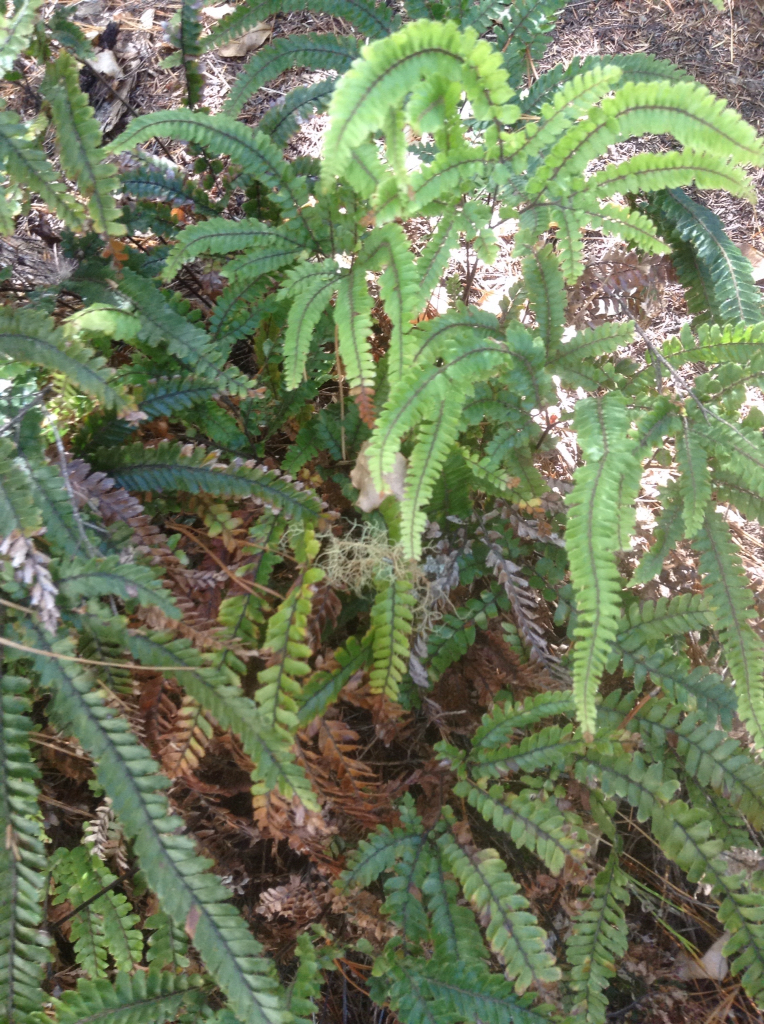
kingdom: Plantae
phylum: Tracheophyta
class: Polypodiopsida
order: Polypodiales
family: Pteridaceae
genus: Adiantum
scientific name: Adiantum hispidulum
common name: Rough maidenhair
